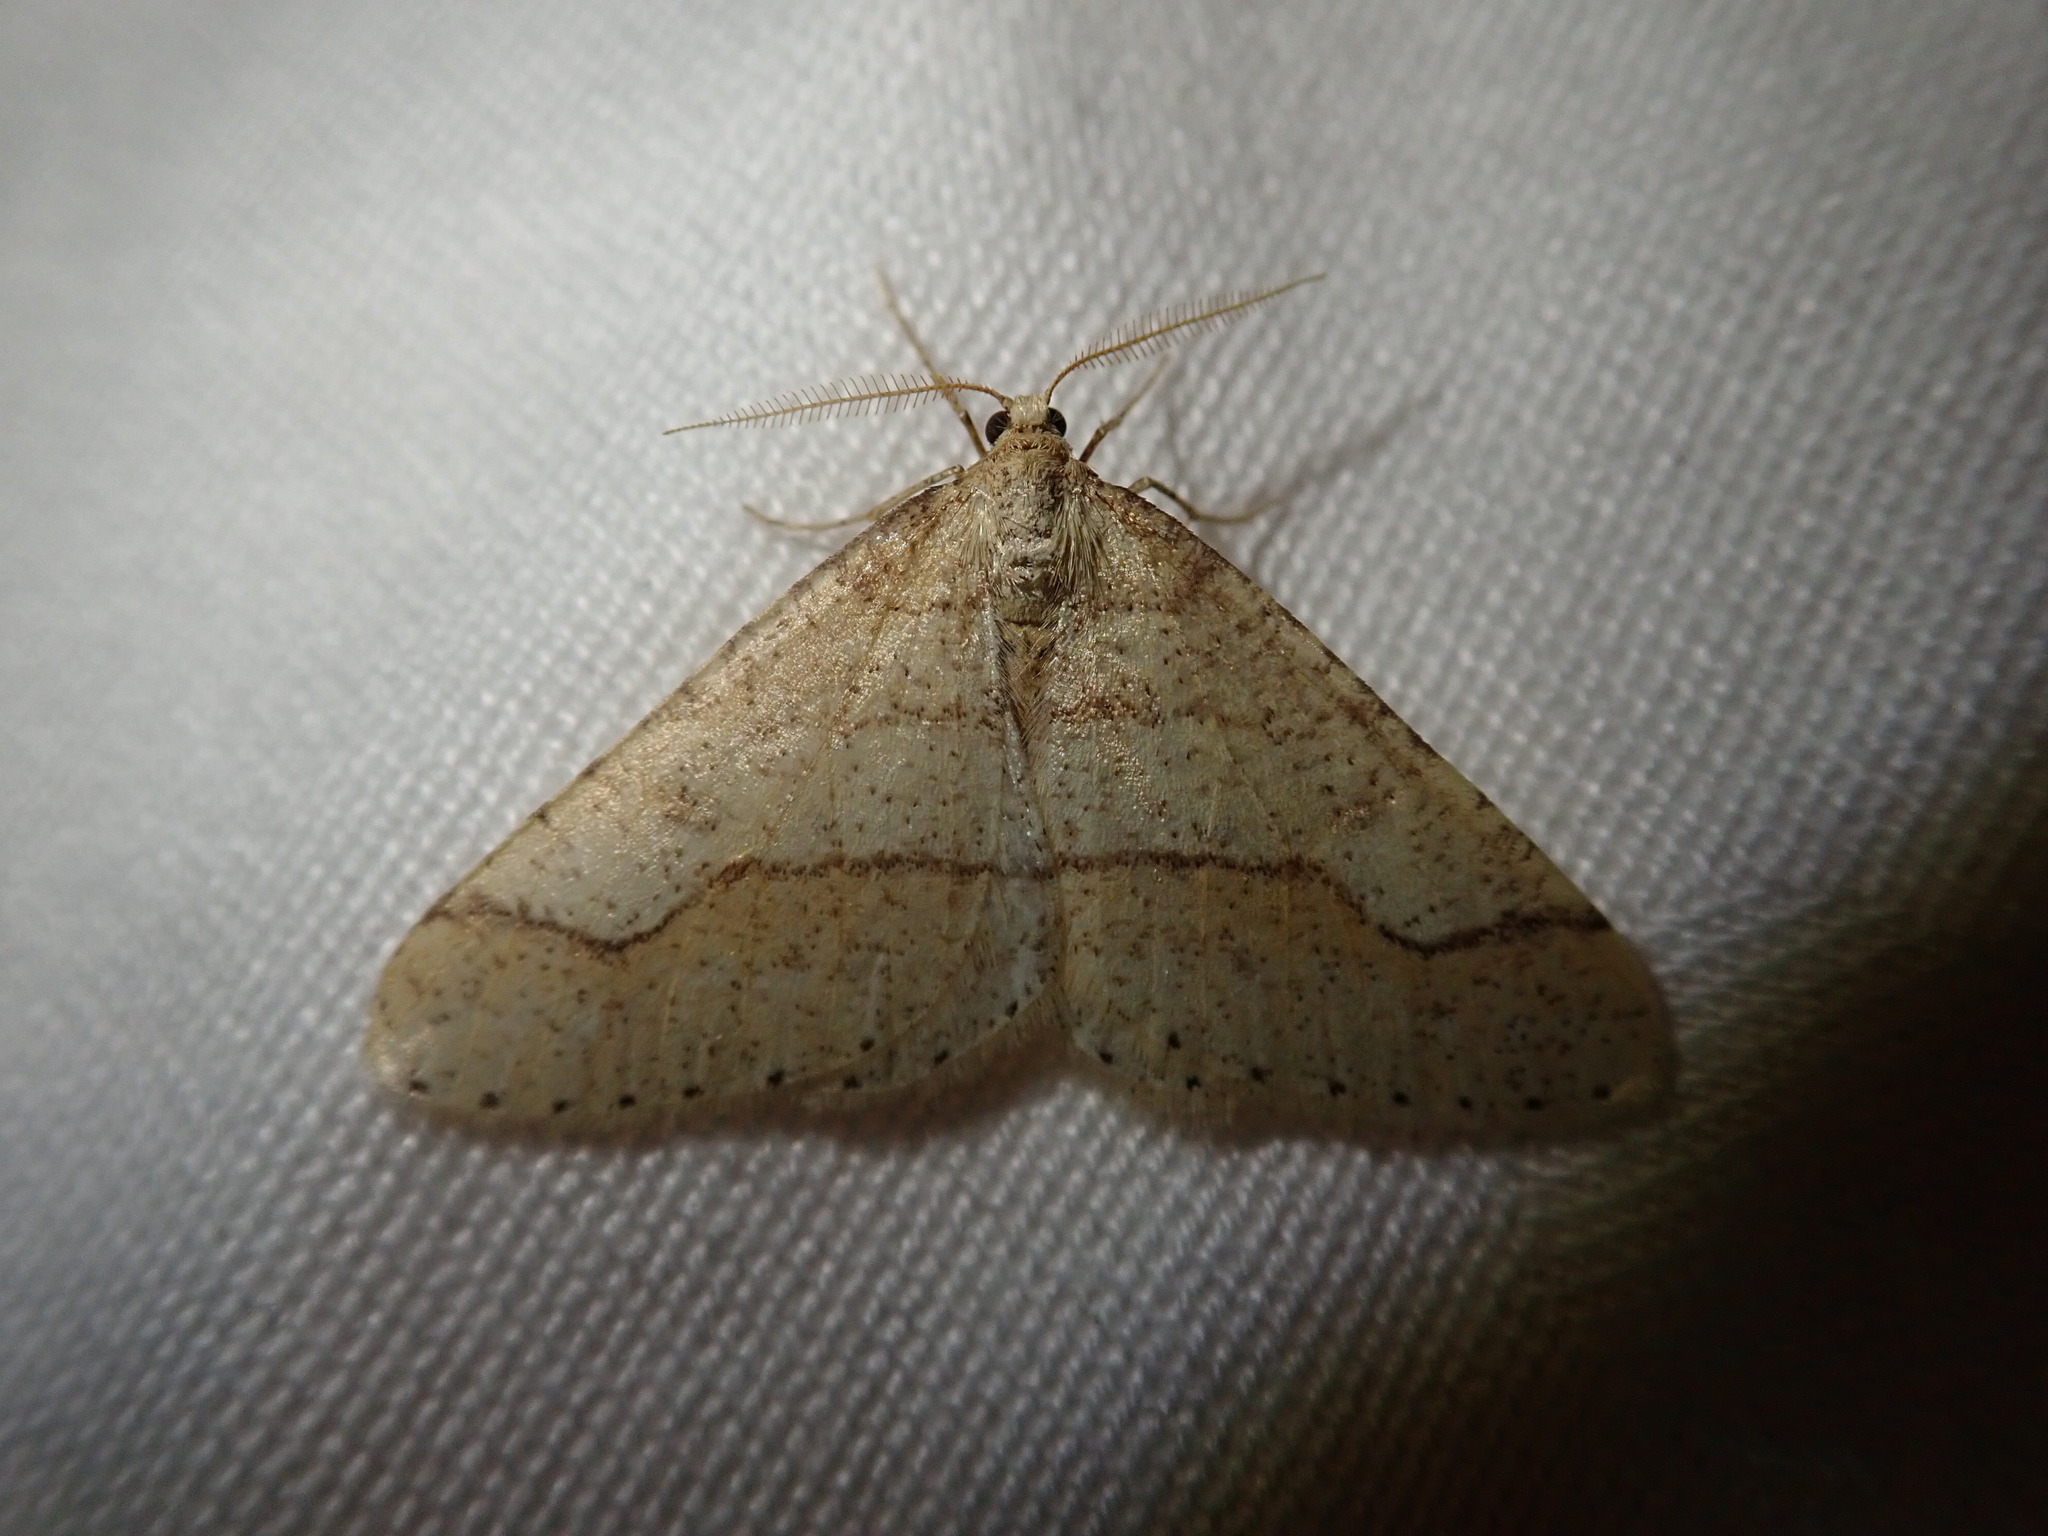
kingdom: Animalia
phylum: Arthropoda
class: Insecta
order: Lepidoptera
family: Geometridae
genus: Agriopis
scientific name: Agriopis marginaria
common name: Dotted border
